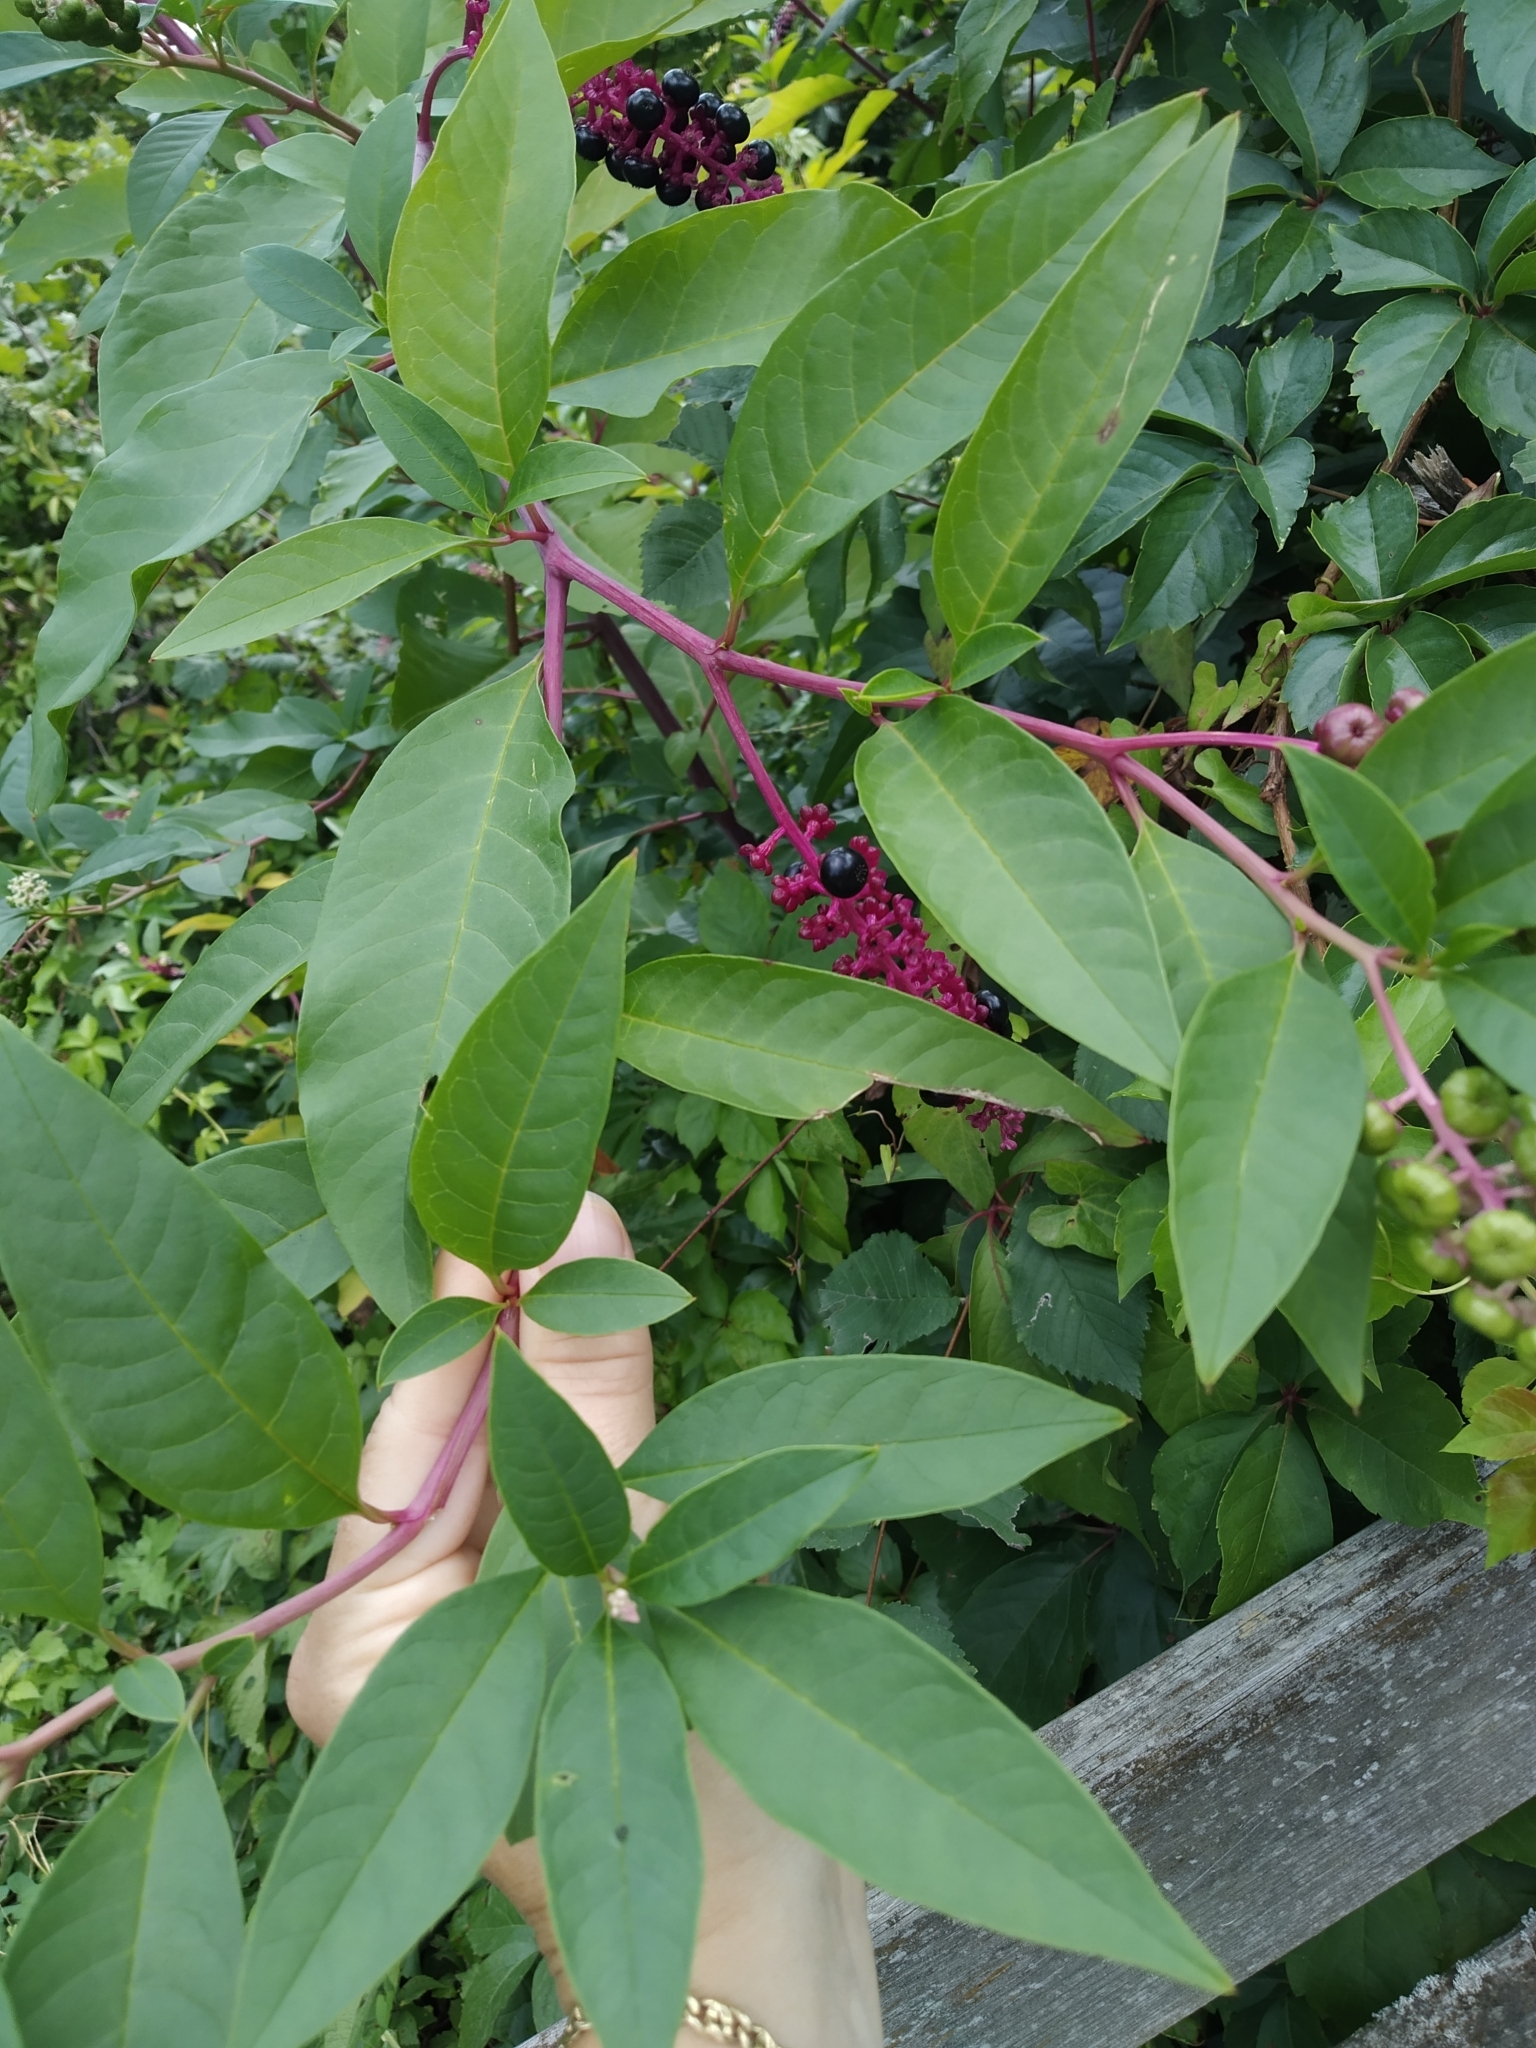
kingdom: Plantae
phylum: Tracheophyta
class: Magnoliopsida
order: Caryophyllales
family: Phytolaccaceae
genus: Phytolacca
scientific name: Phytolacca americana
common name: American pokeweed
